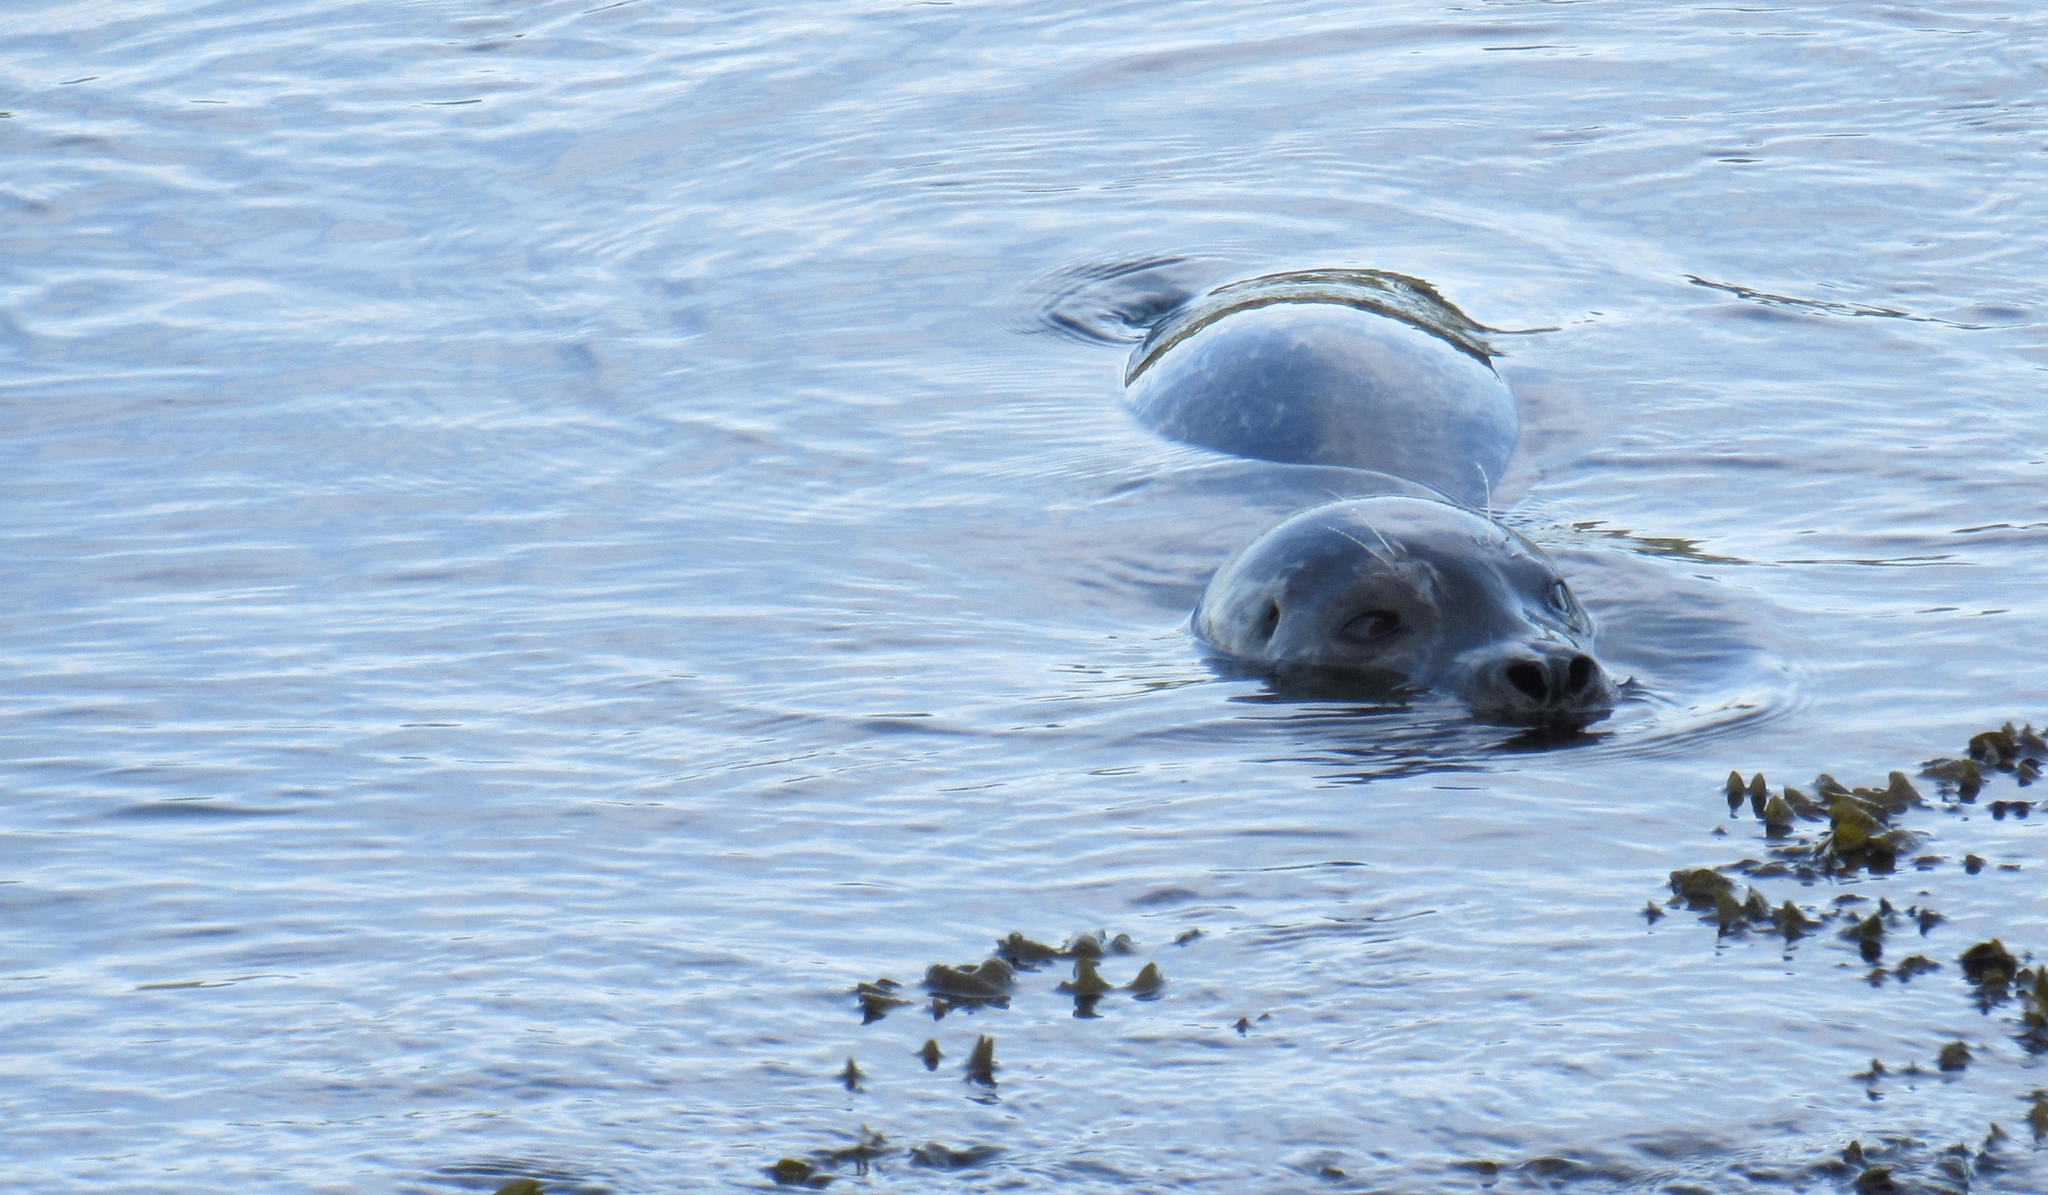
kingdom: Animalia
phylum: Chordata
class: Mammalia
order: Carnivora
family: Phocidae
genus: Phoca
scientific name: Phoca vitulina
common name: Harbor seal
